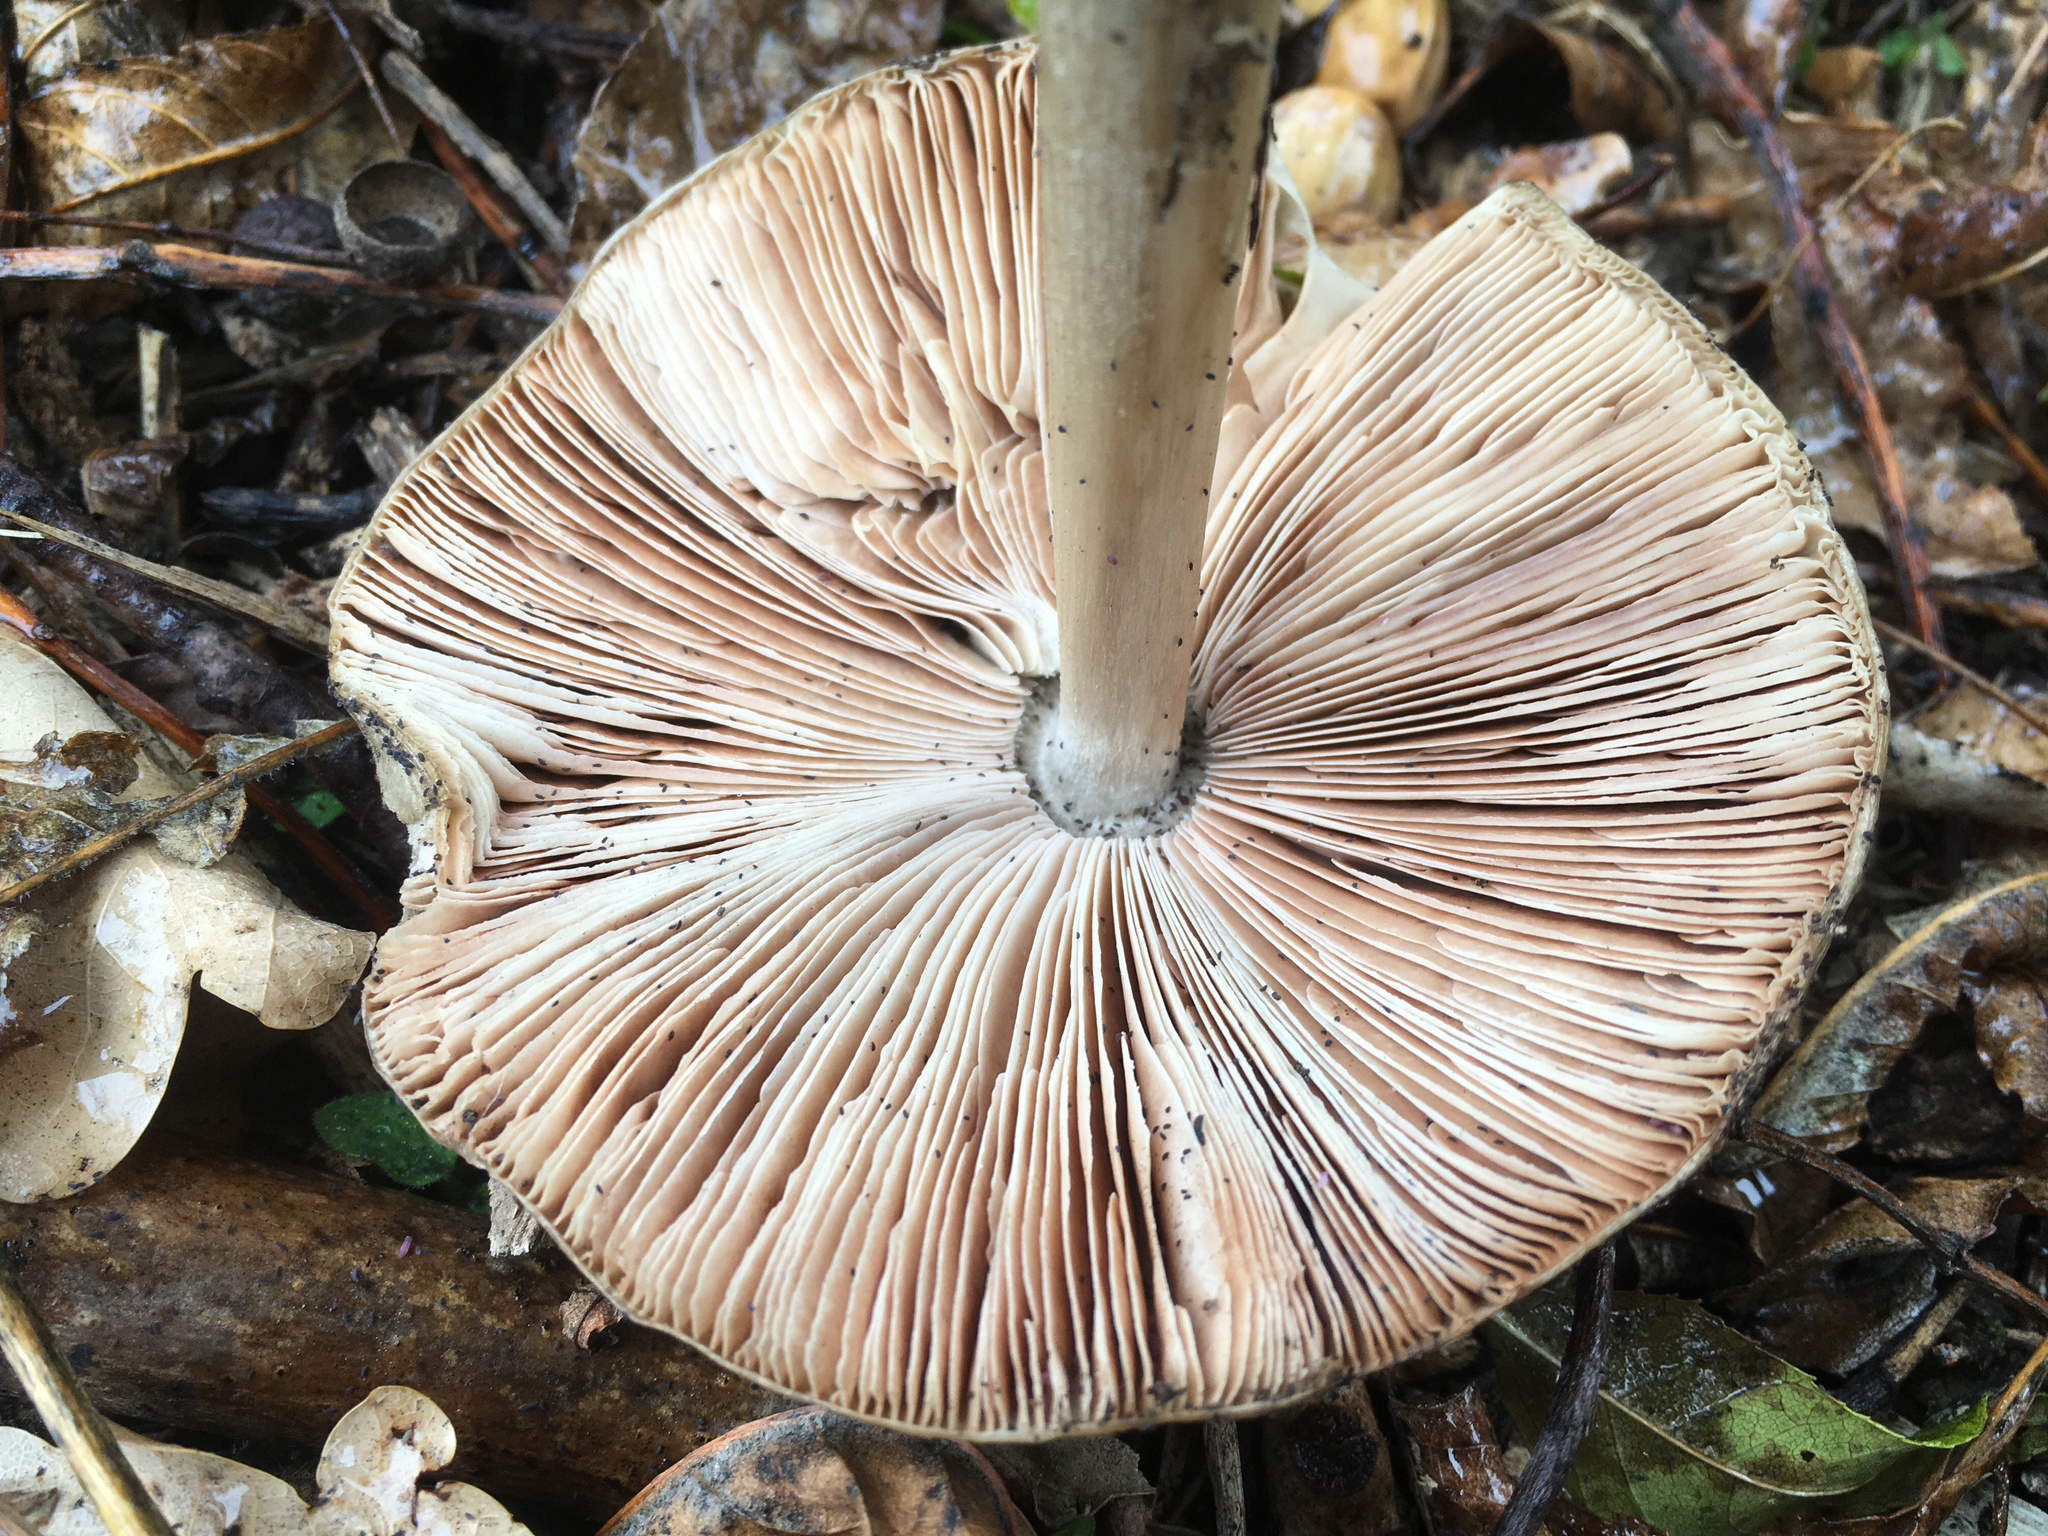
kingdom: Fungi
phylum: Basidiomycota
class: Agaricomycetes
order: Agaricales
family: Pluteaceae
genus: Volvopluteus
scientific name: Volvopluteus gloiocephalus
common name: Stubble rosegill
